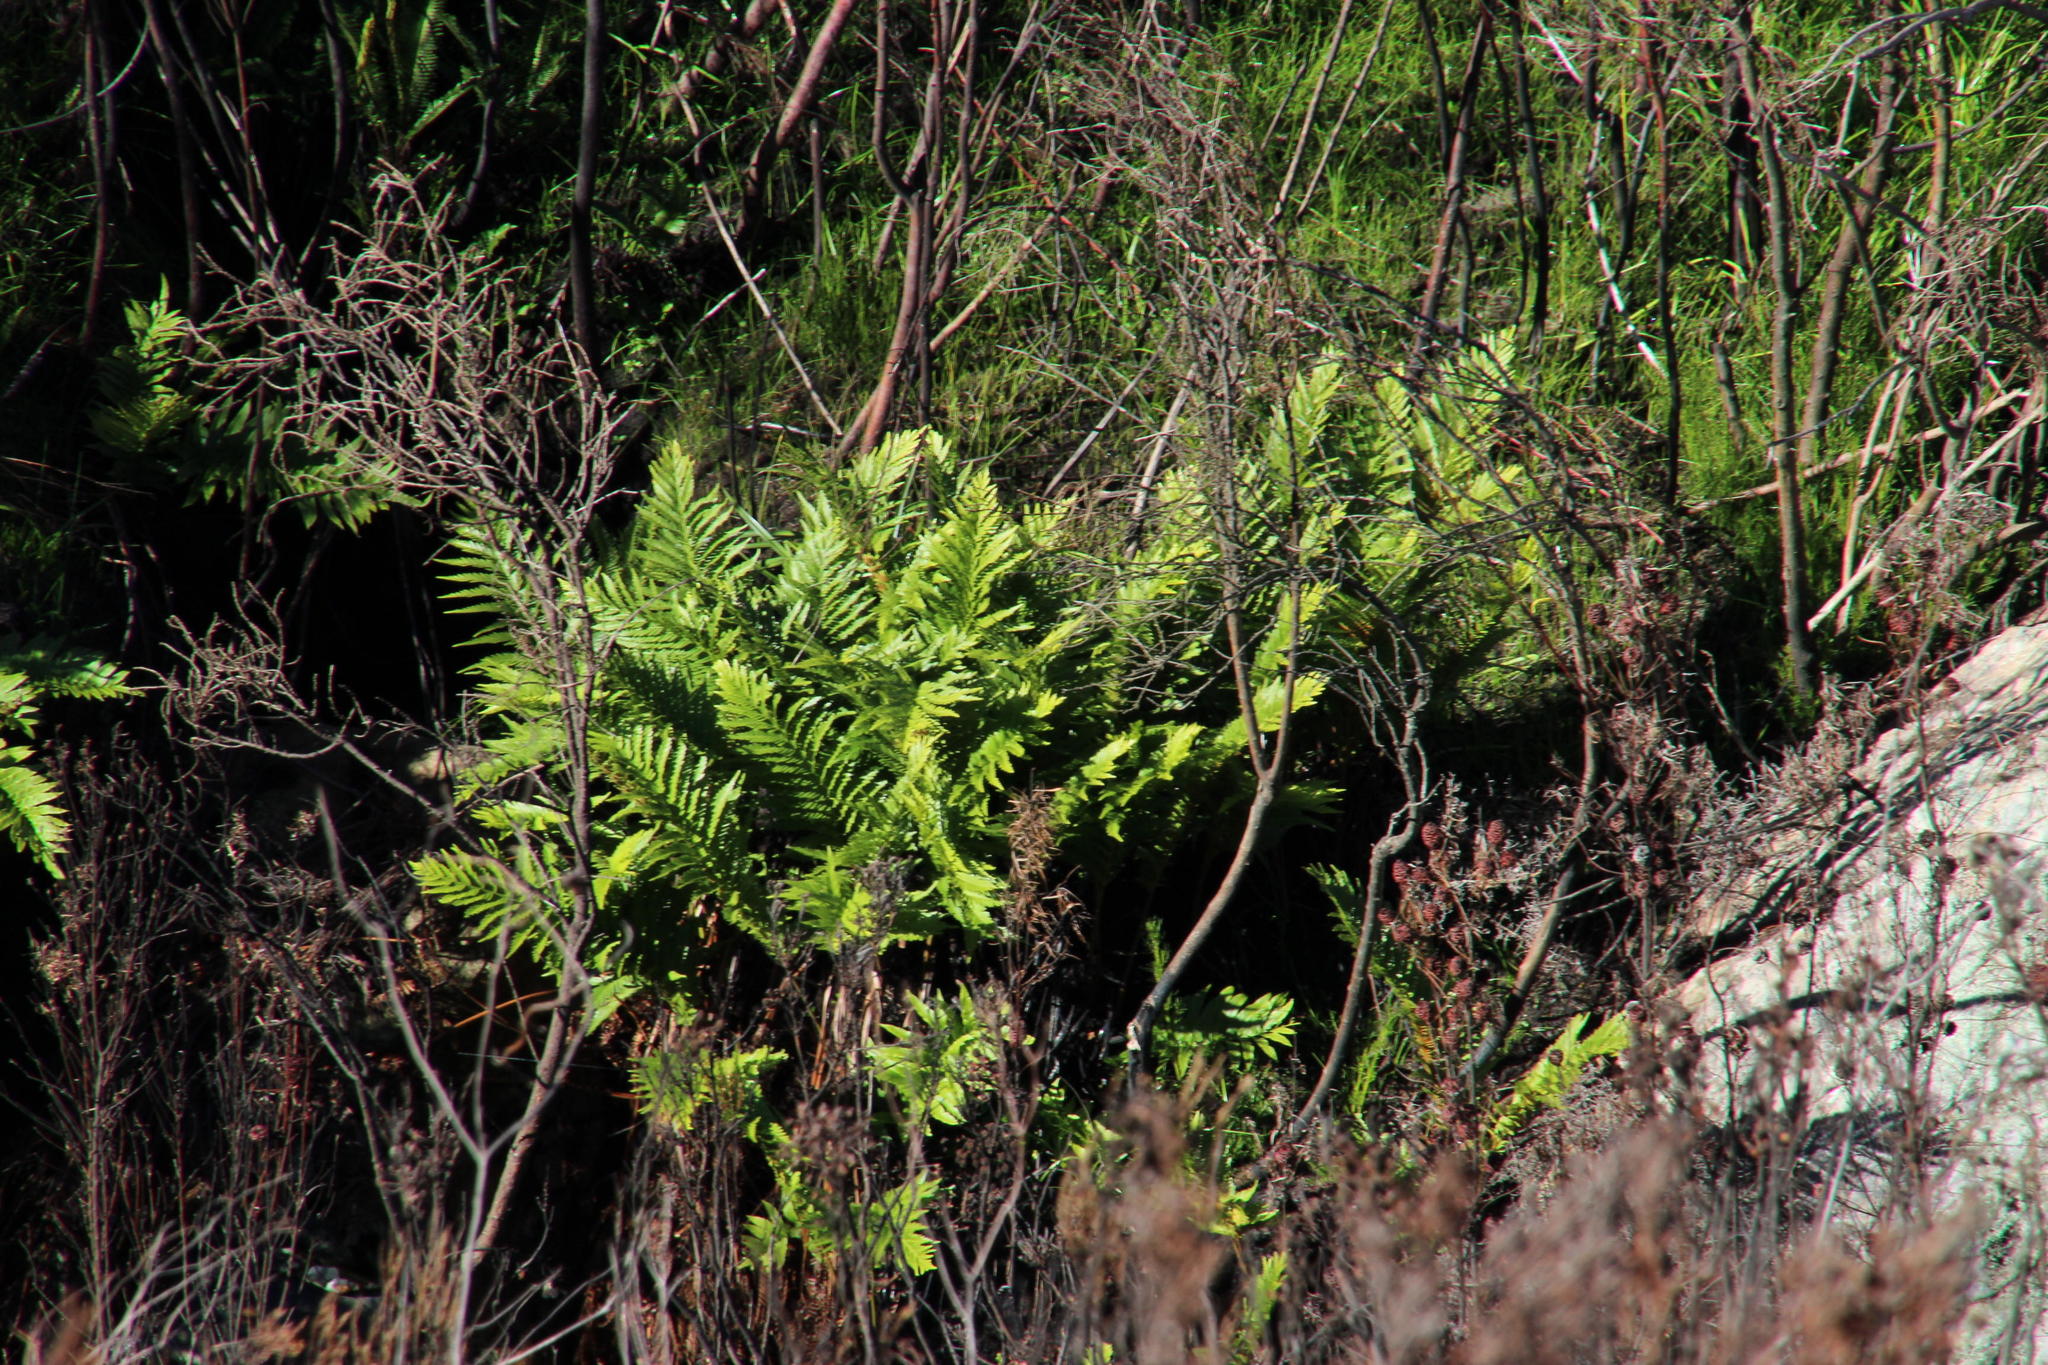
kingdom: Plantae
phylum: Tracheophyta
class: Polypodiopsida
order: Polypodiales
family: Blechnaceae
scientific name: Blechnaceae
